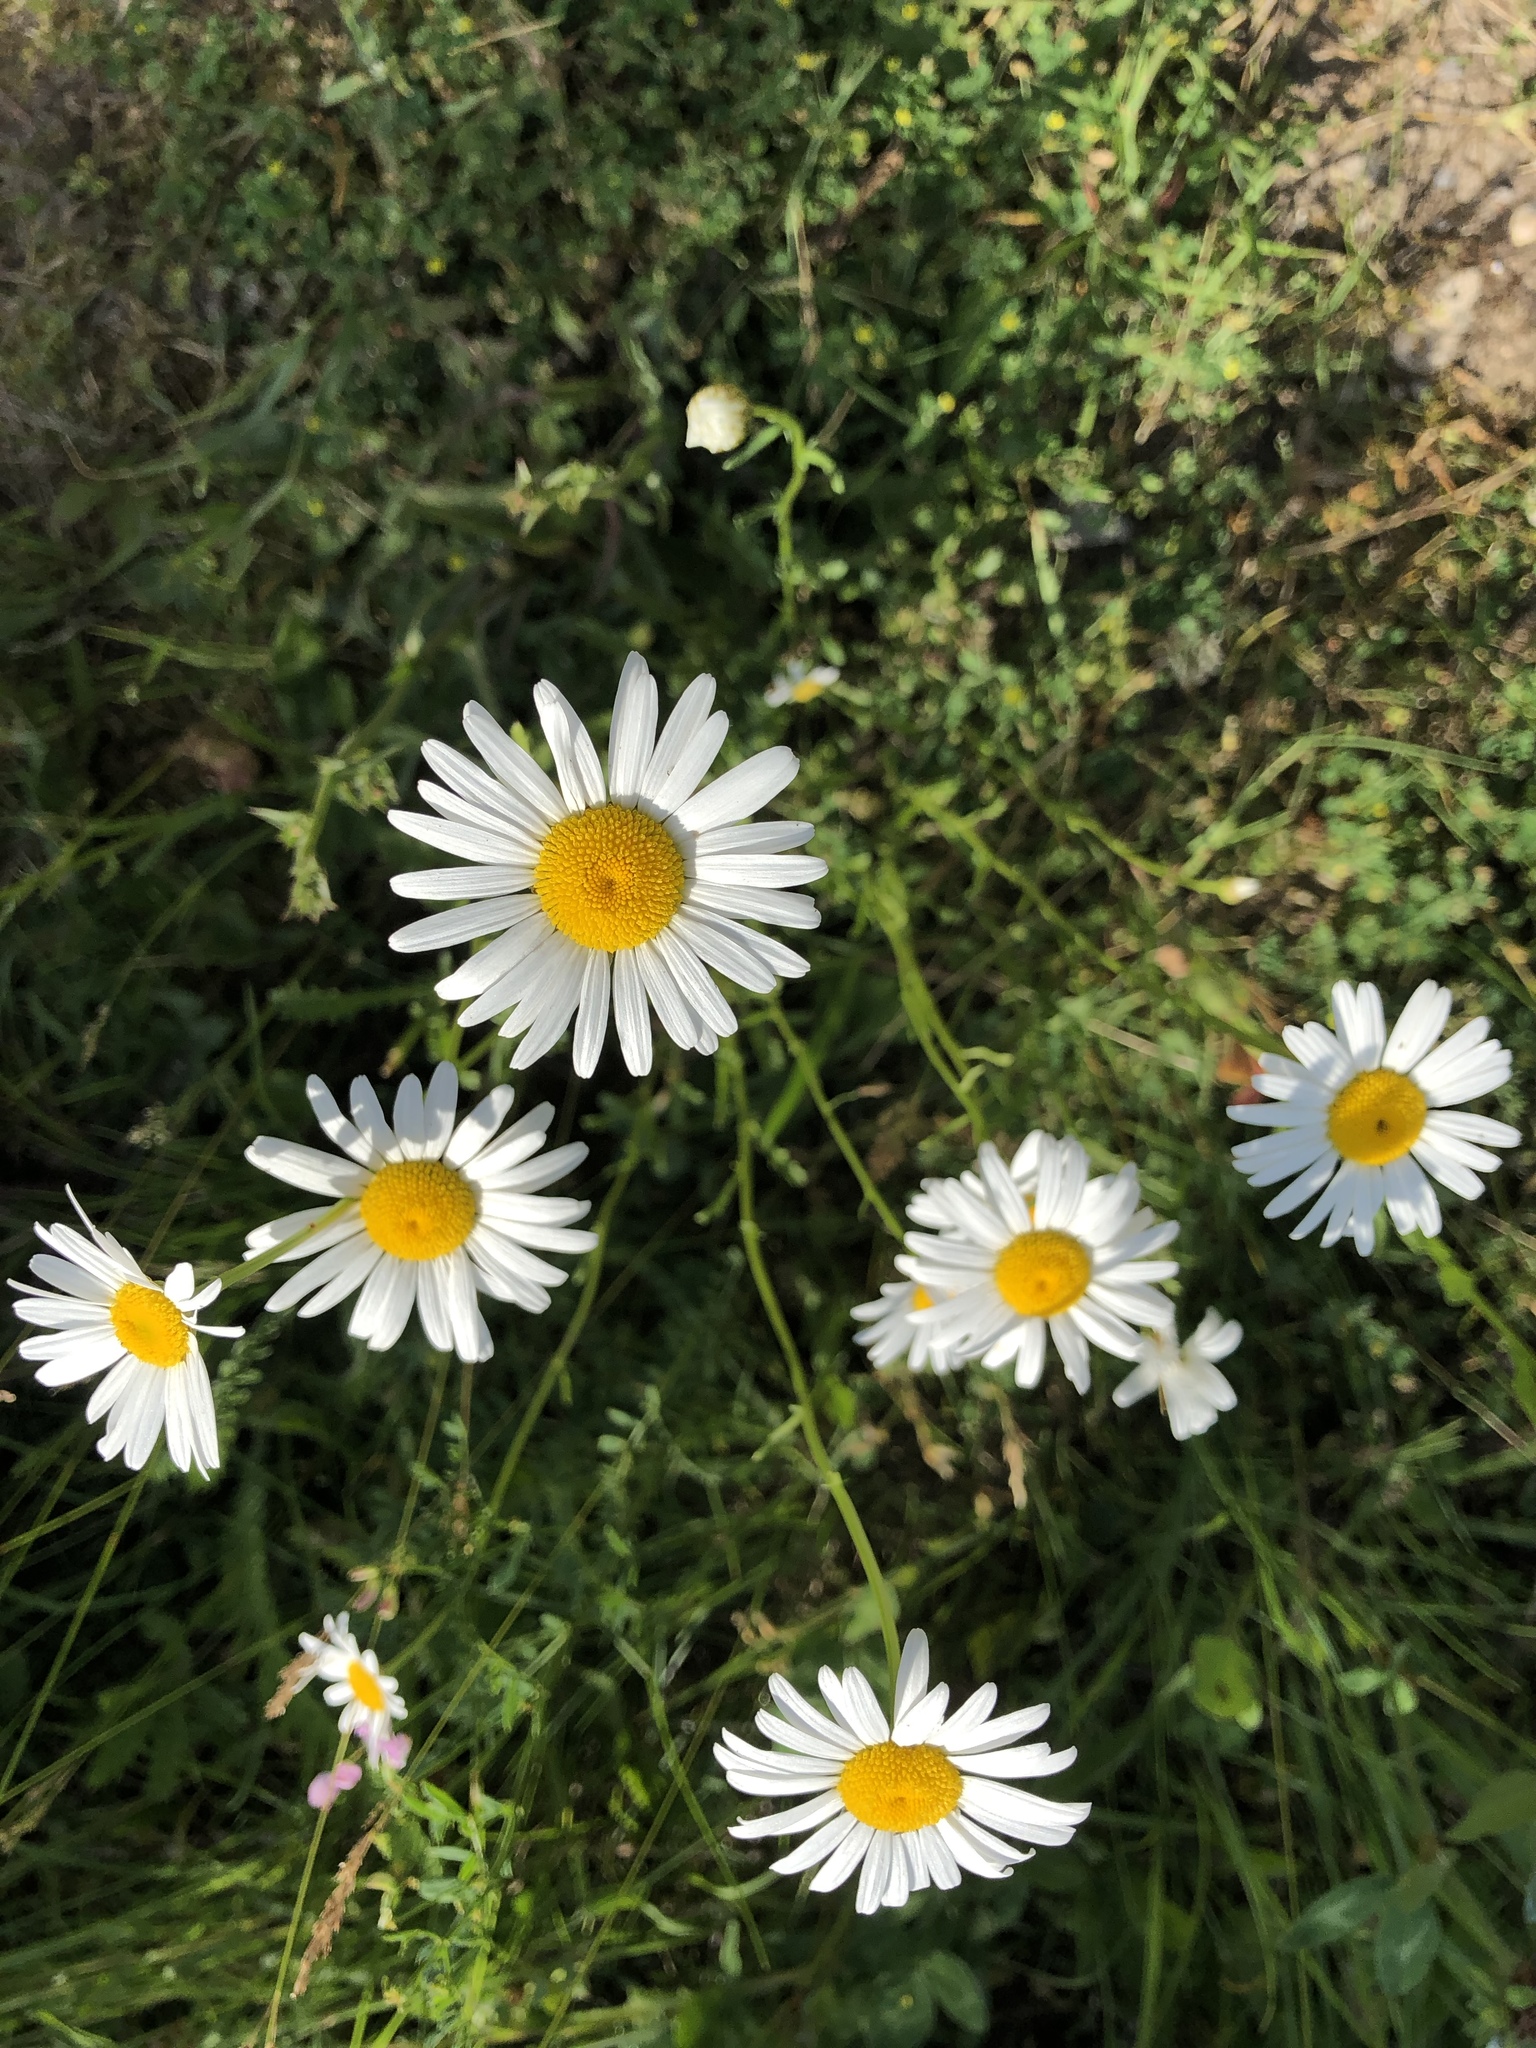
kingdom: Plantae
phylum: Tracheophyta
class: Magnoliopsida
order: Asterales
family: Asteraceae
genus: Leucanthemum
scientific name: Leucanthemum vulgare
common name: Oxeye daisy
